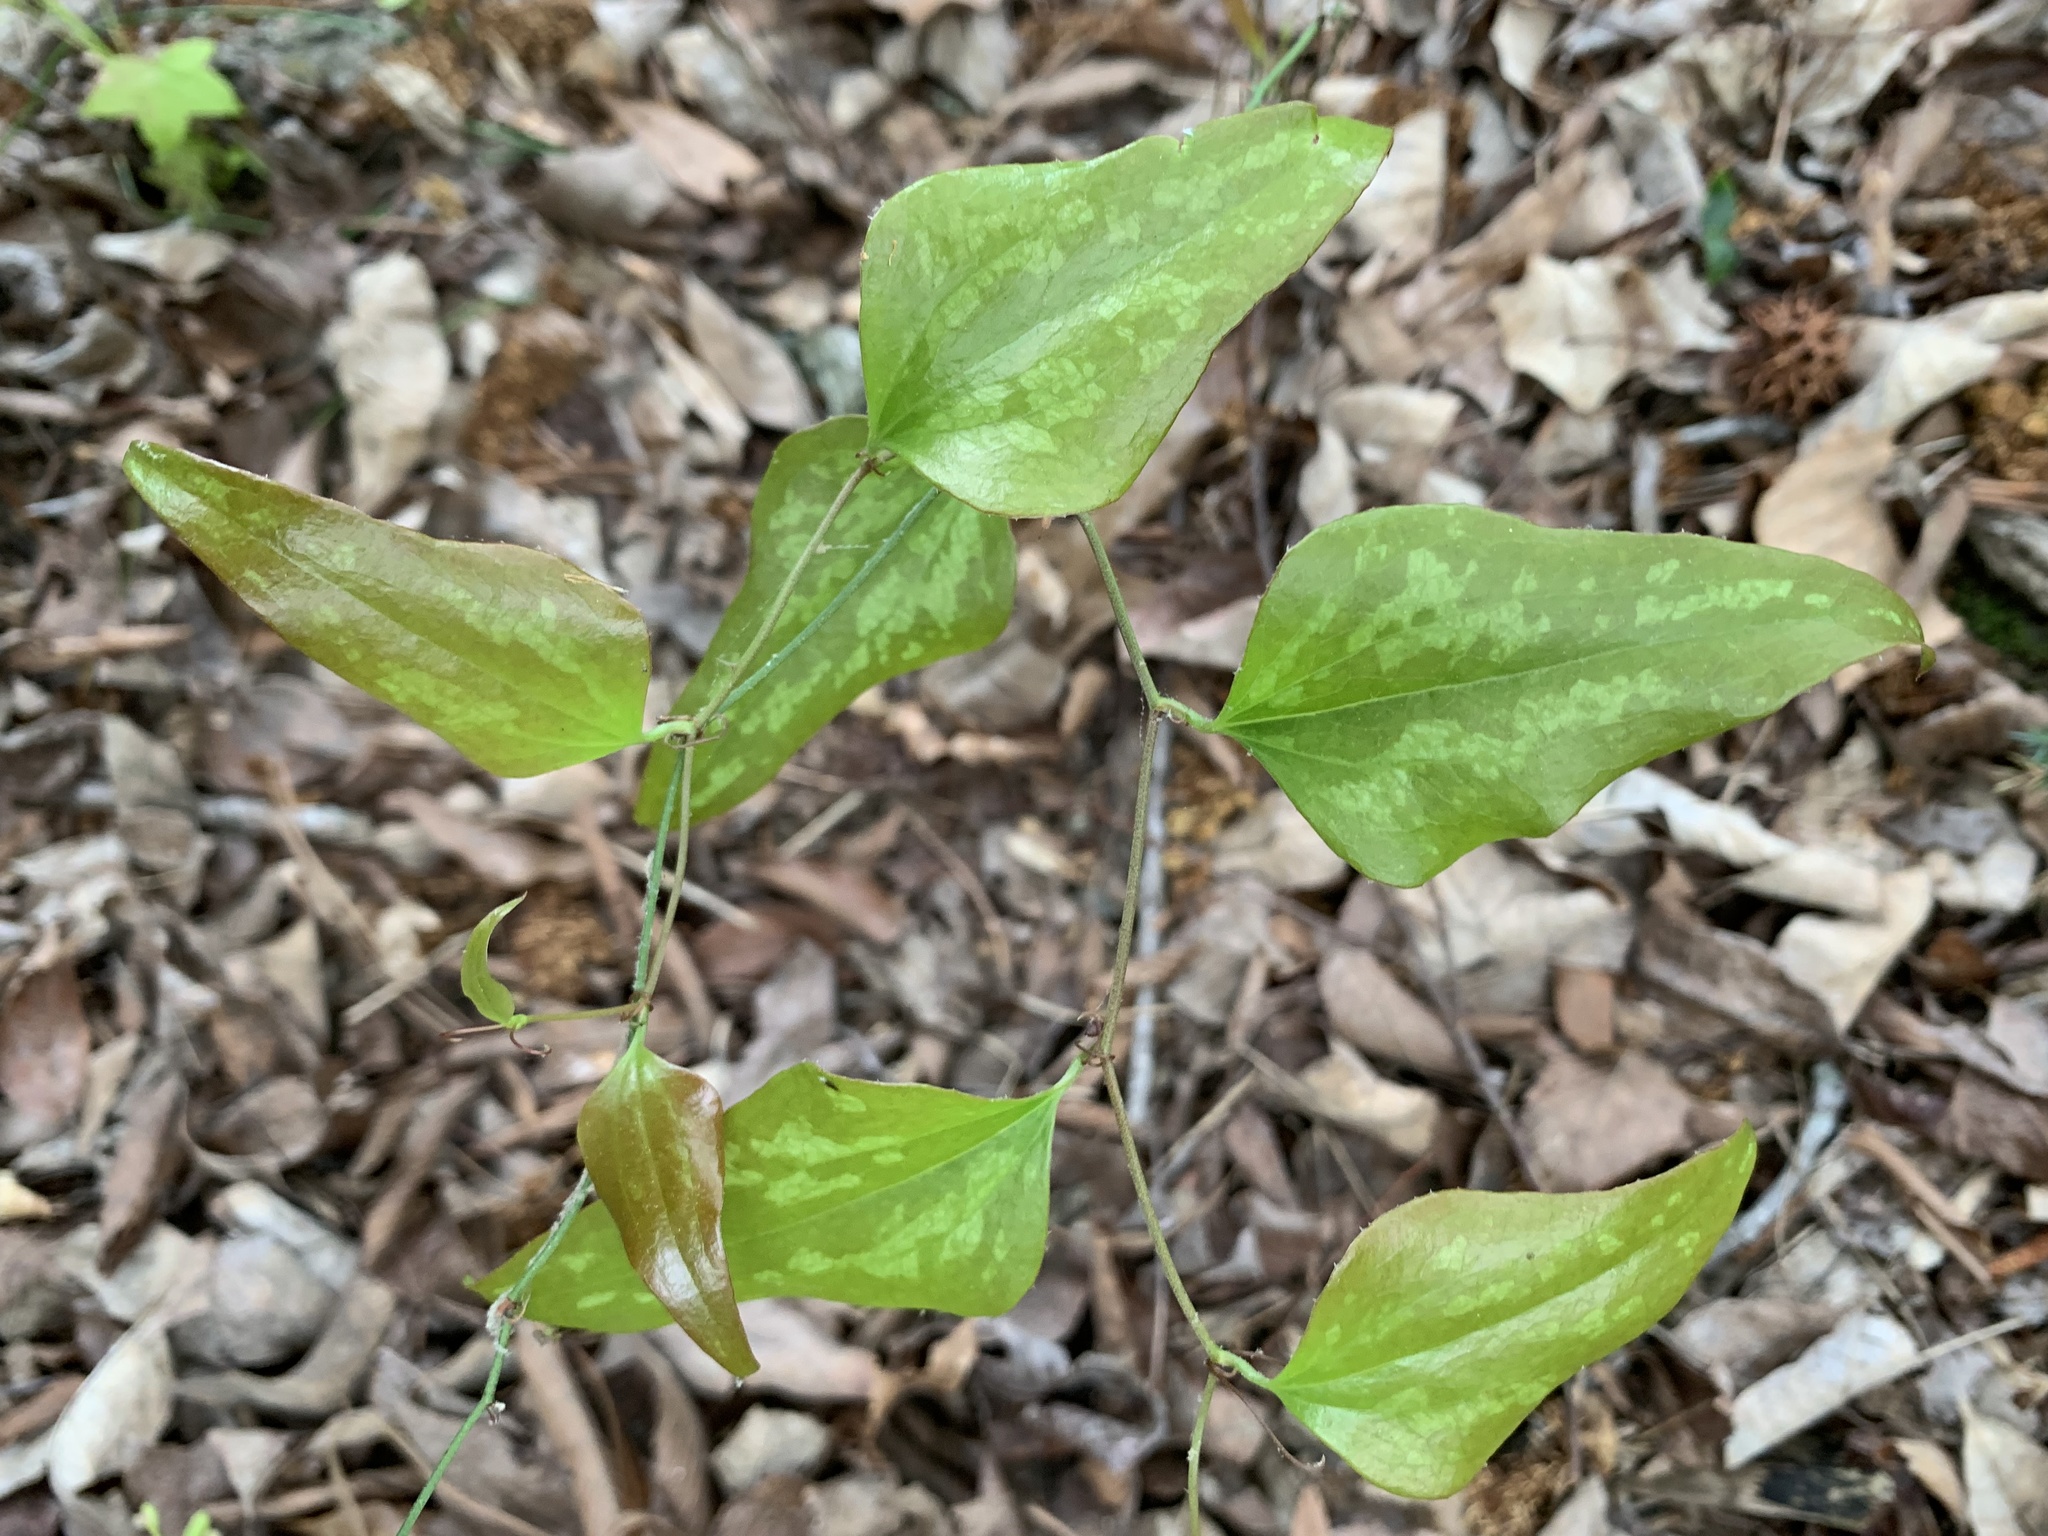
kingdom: Plantae
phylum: Tracheophyta
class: Liliopsida
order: Liliales
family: Smilacaceae
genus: Smilax
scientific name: Smilax bona-nox
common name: Catbrier
